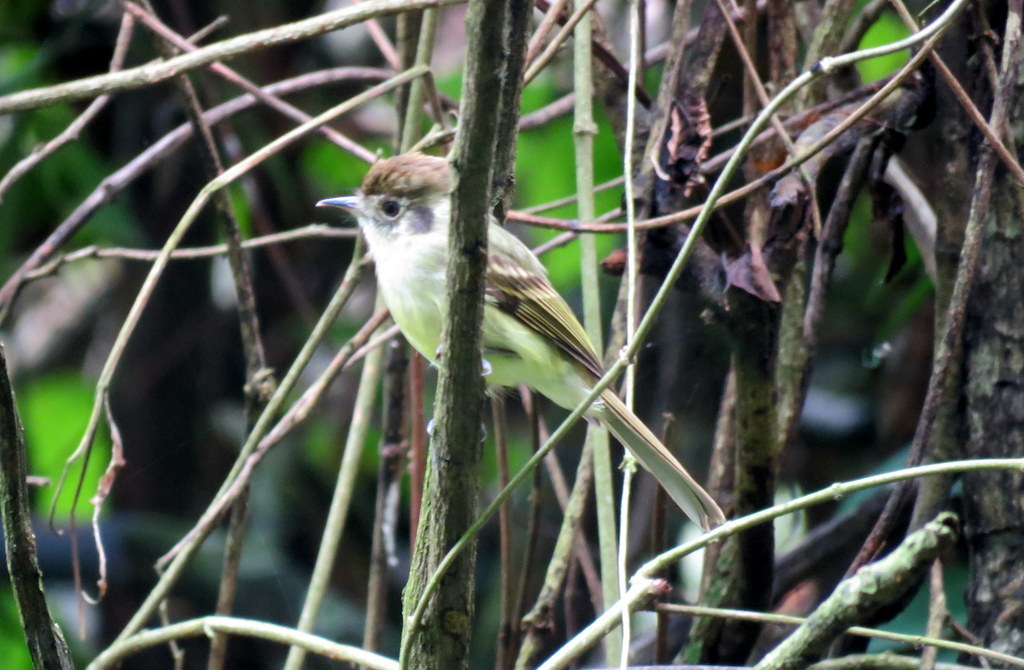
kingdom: Animalia
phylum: Chordata
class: Aves
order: Passeriformes
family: Tyrannidae
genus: Leptopogon
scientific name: Leptopogon amaurocephalus
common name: Sepia-capped flycatcher
